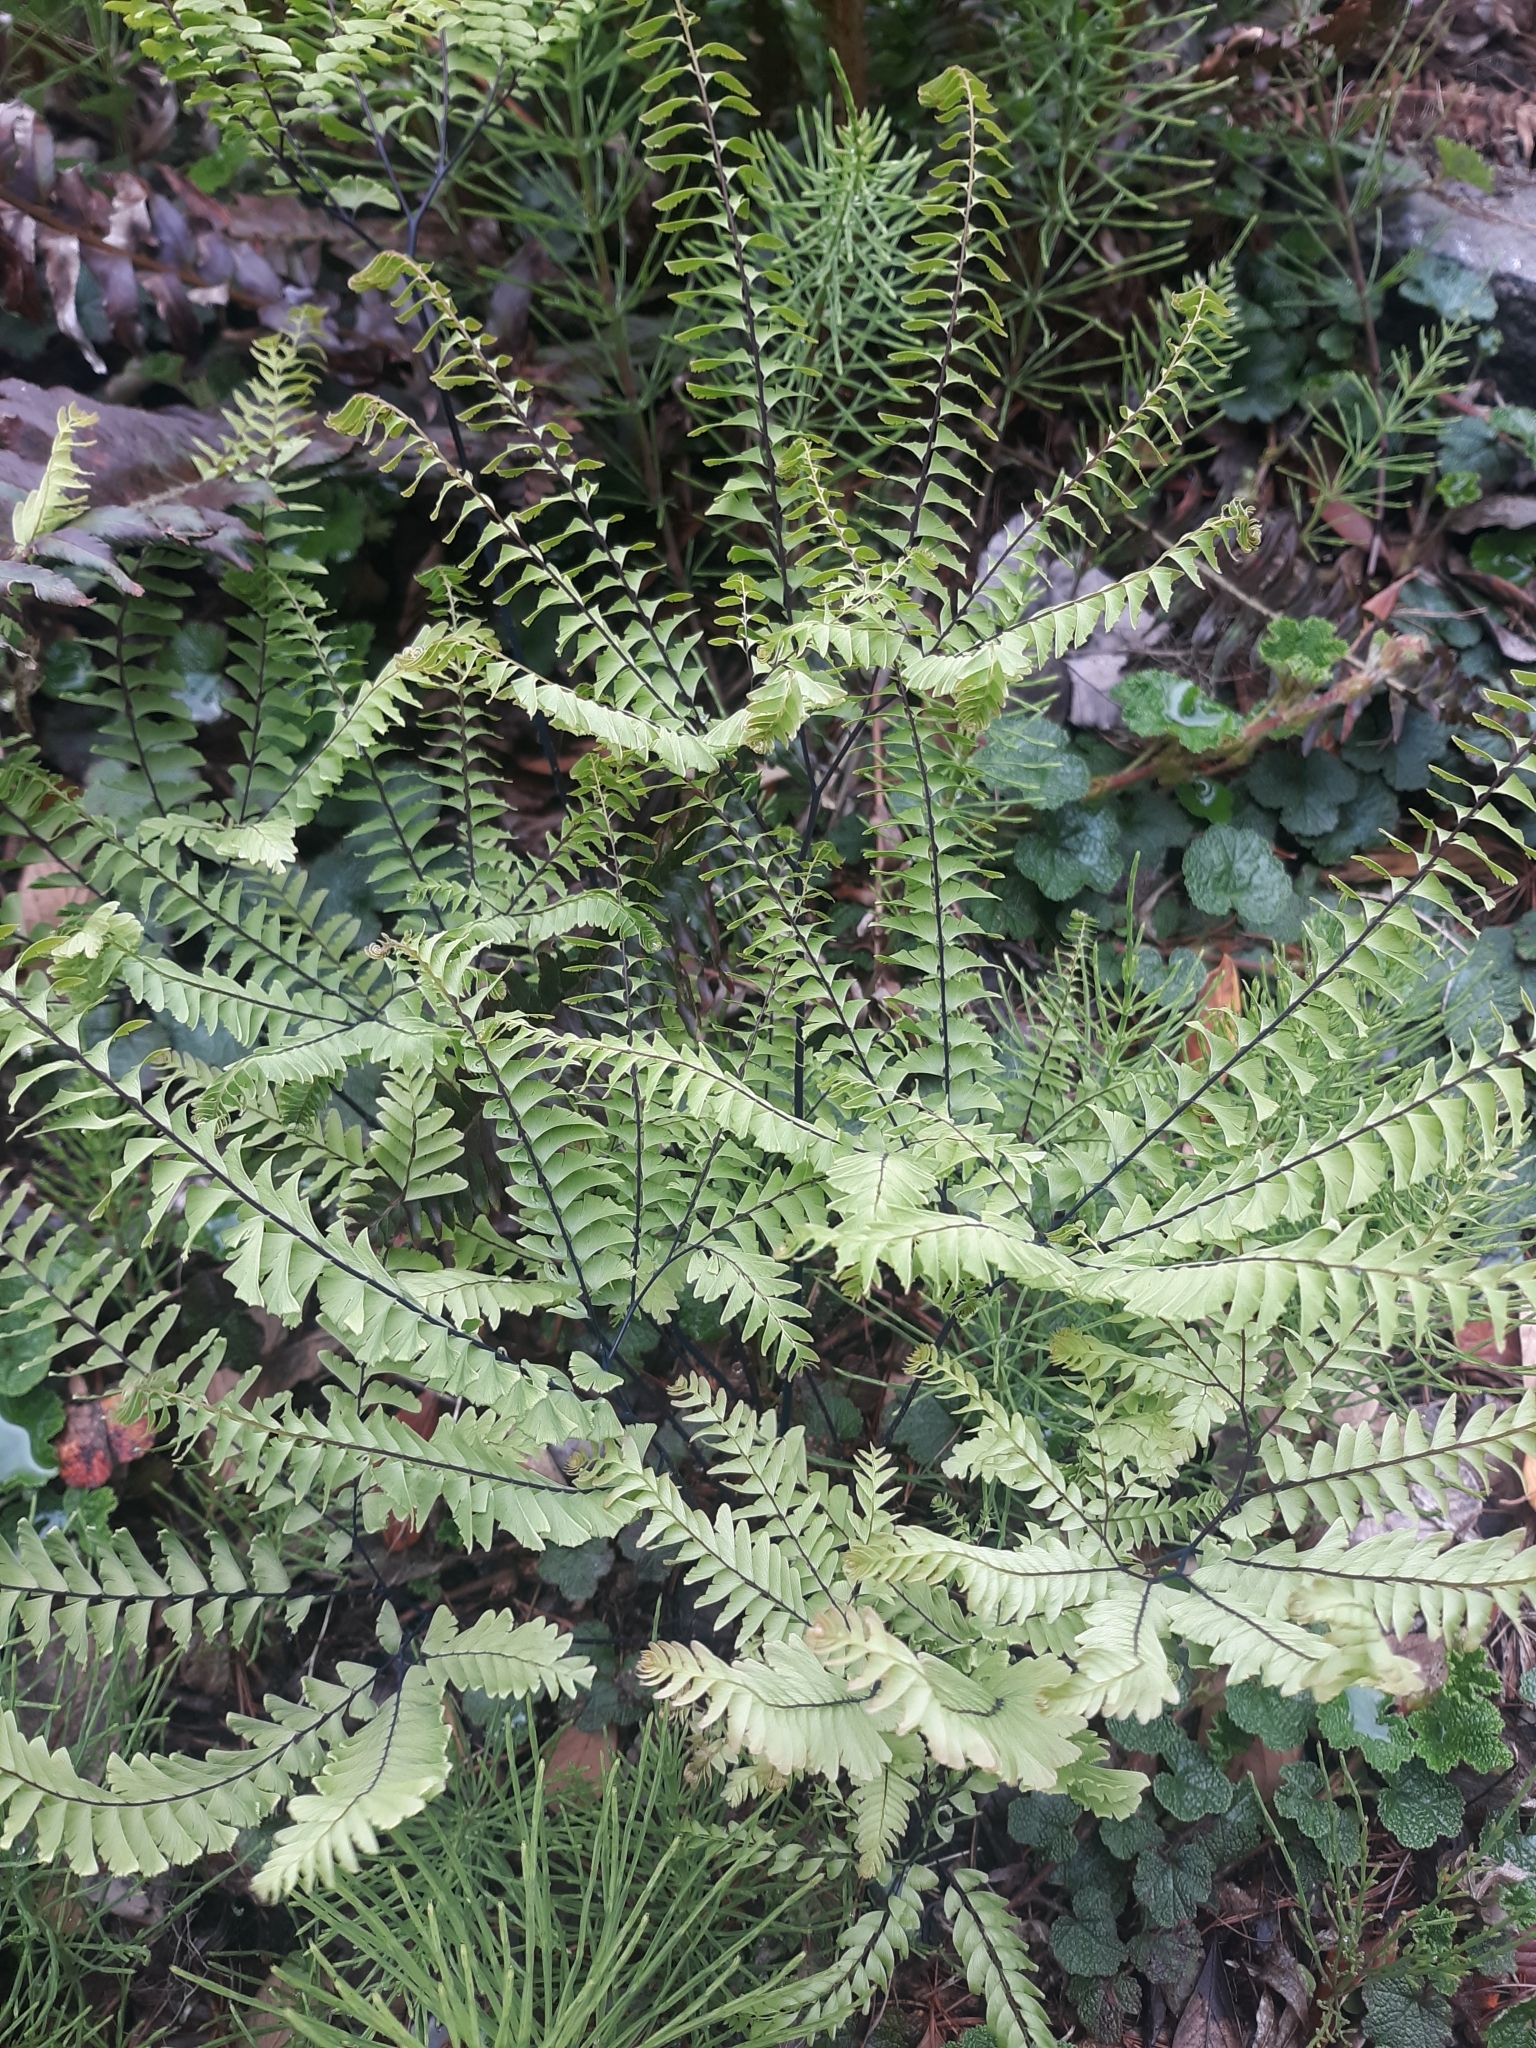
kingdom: Plantae
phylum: Tracheophyta
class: Polypodiopsida
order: Polypodiales
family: Pteridaceae
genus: Adiantum
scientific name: Adiantum aleuticum
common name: Aleutian maidenhair fern
